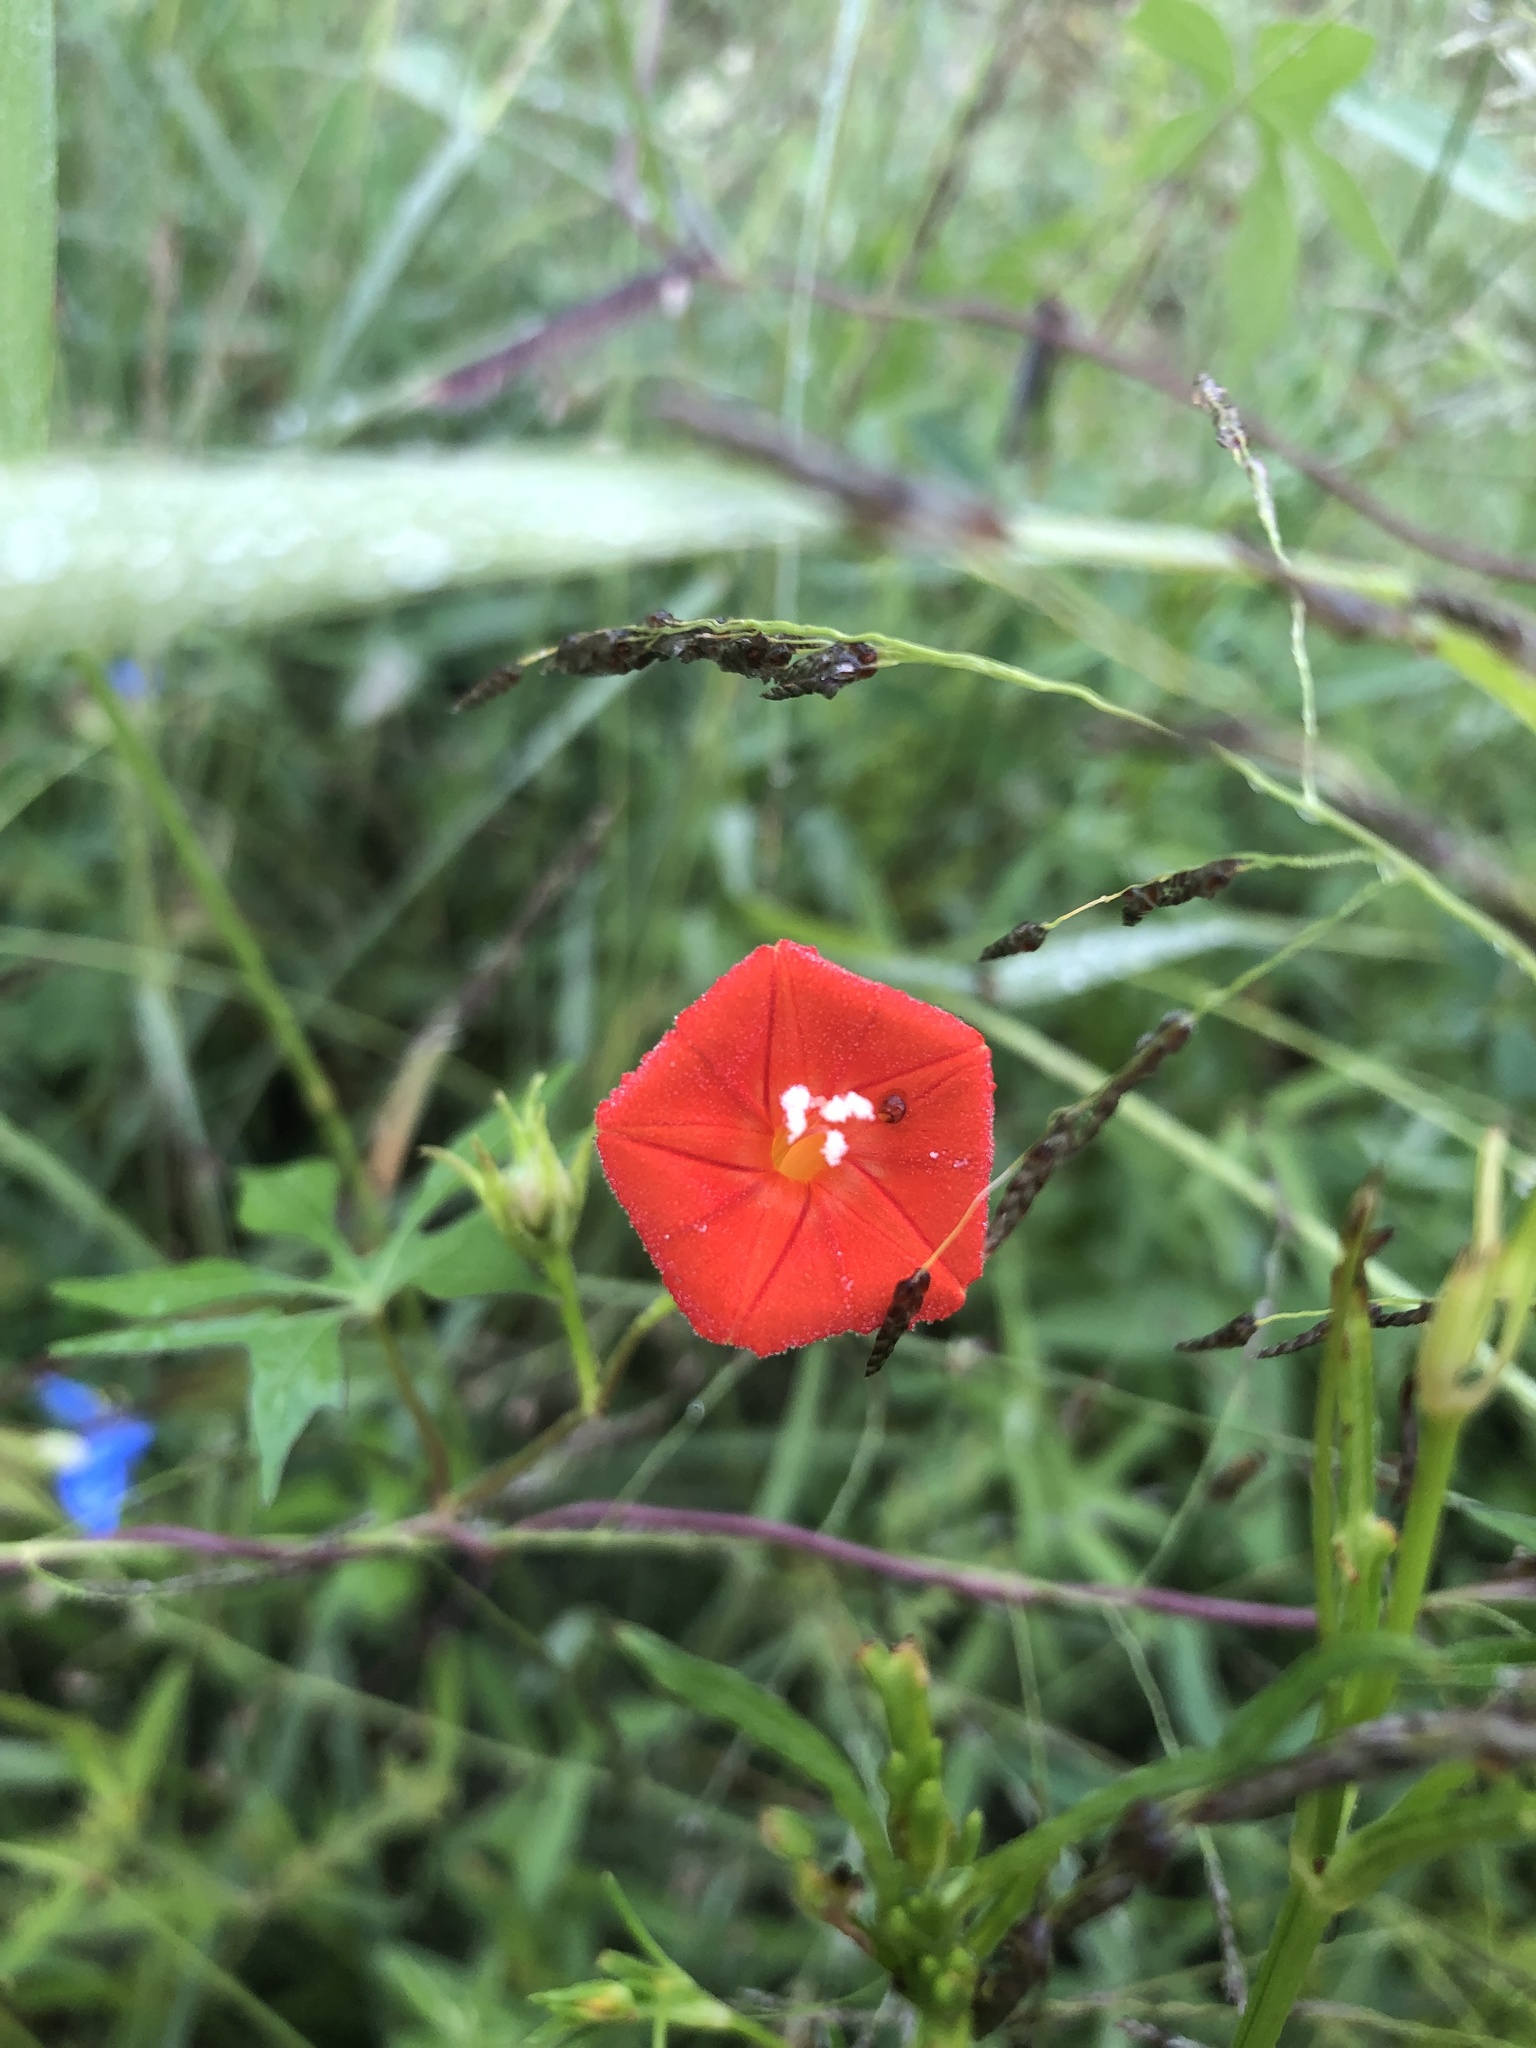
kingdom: Plantae
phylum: Tracheophyta
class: Magnoliopsida
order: Solanales
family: Convolvulaceae
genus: Ipomoea
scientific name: Ipomoea cristulata
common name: Trans-pecos morning-glory
